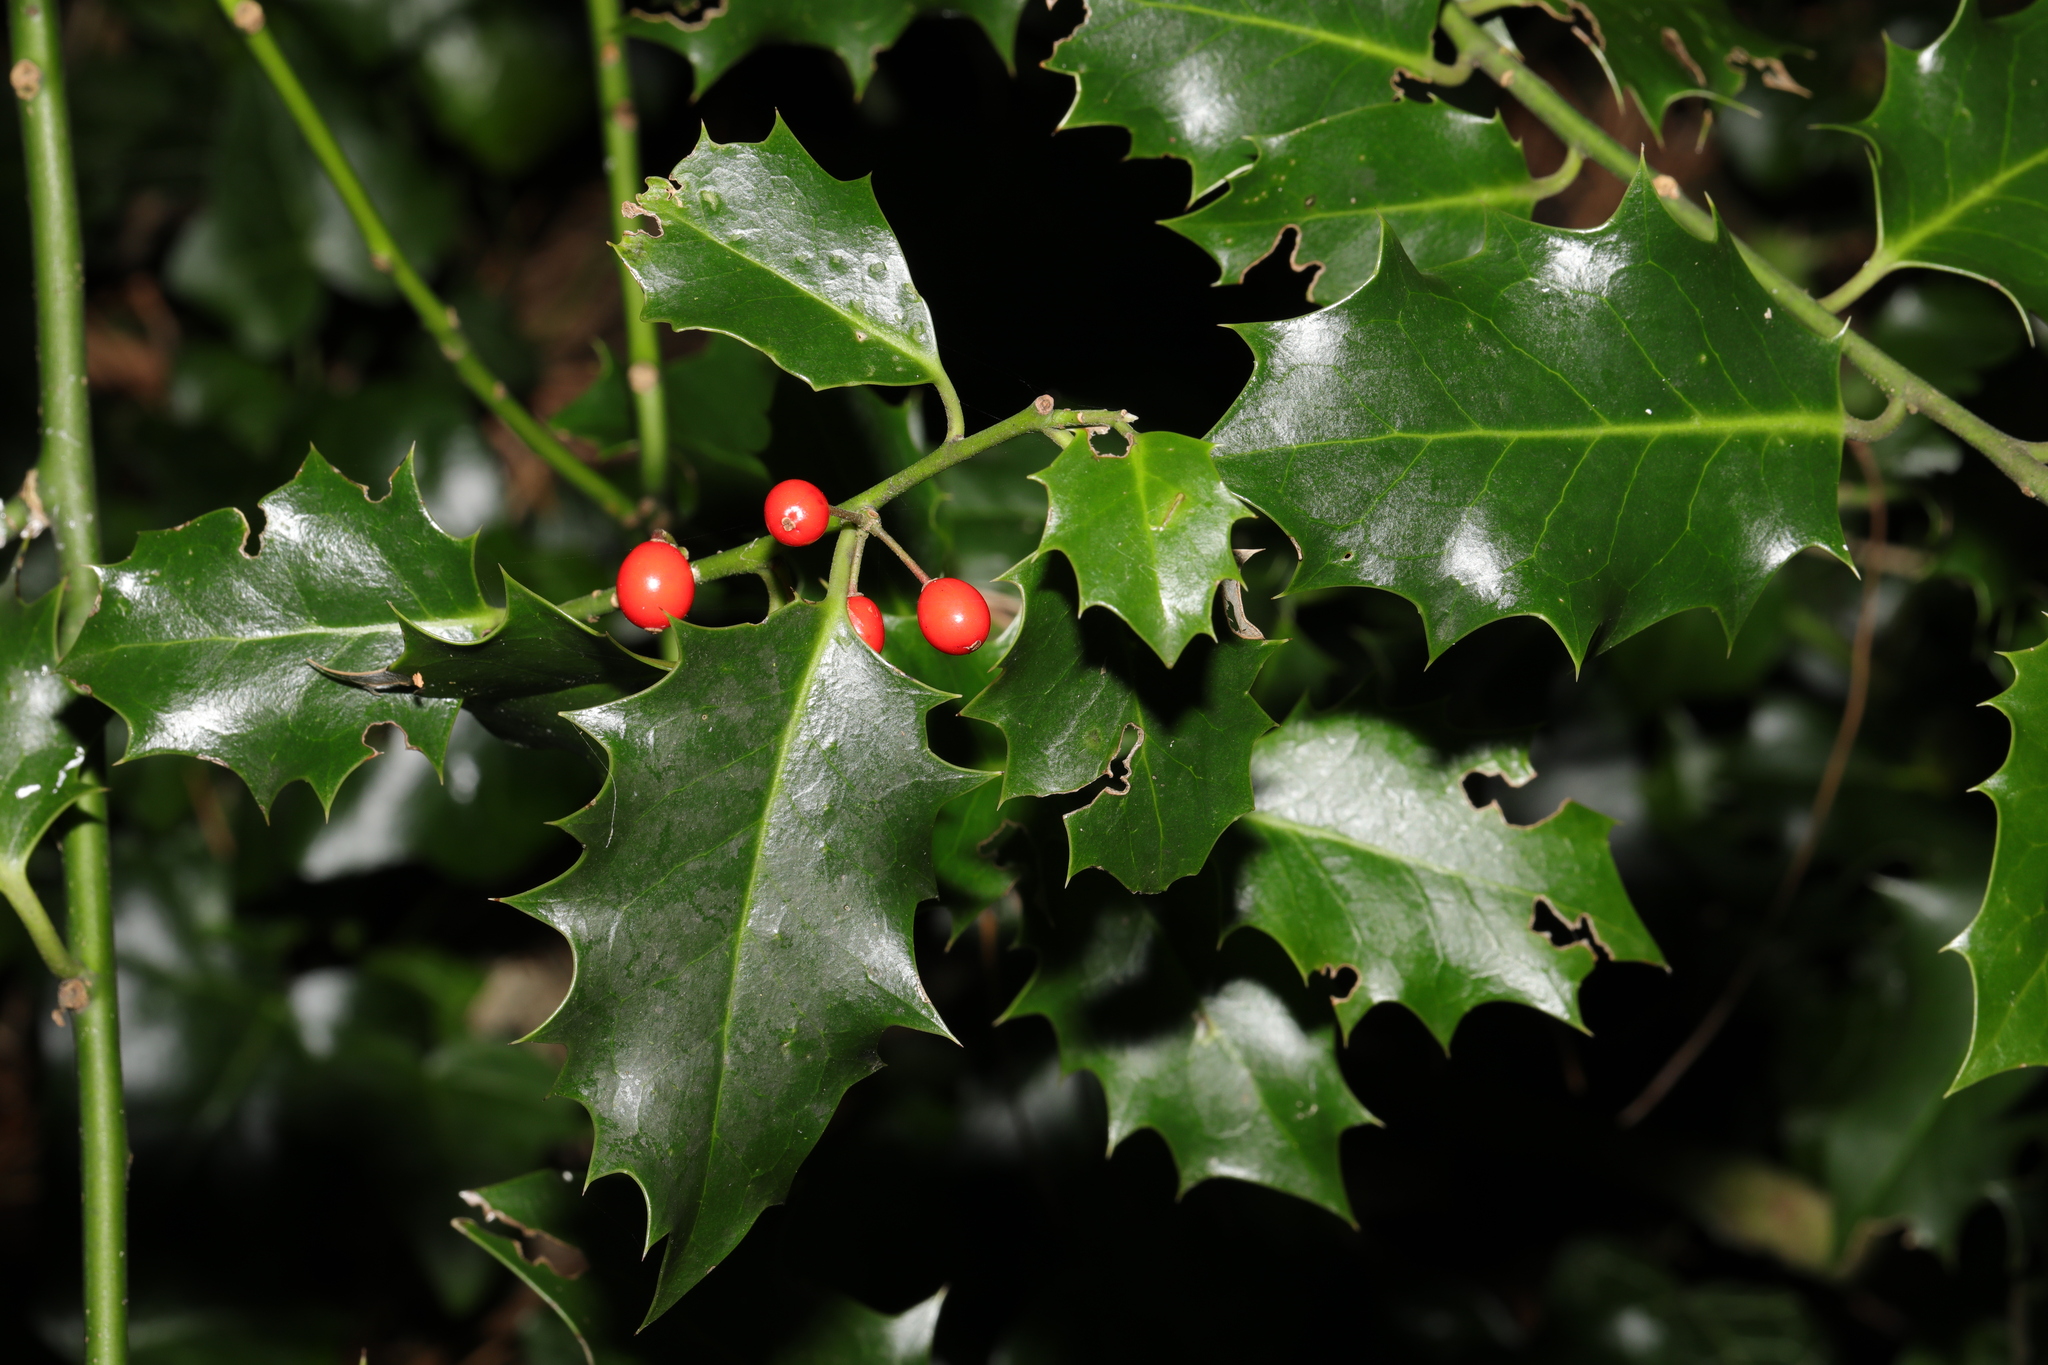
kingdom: Plantae
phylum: Tracheophyta
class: Magnoliopsida
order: Aquifoliales
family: Aquifoliaceae
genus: Ilex
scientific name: Ilex aquifolium
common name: English holly
